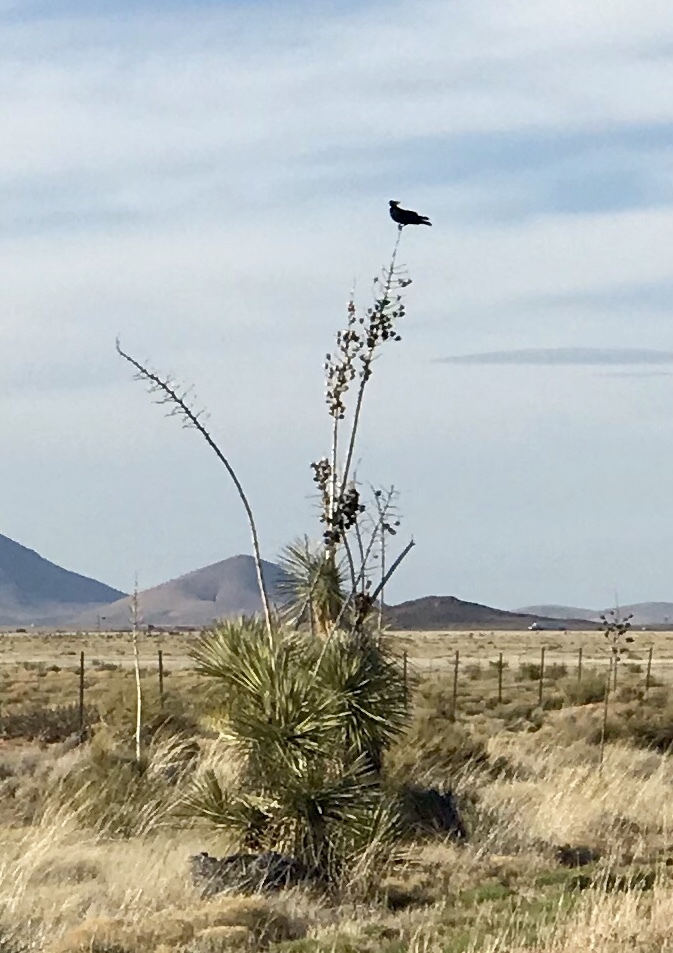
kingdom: Plantae
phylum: Tracheophyta
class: Liliopsida
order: Asparagales
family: Asparagaceae
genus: Yucca
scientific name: Yucca elata
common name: Palmella
